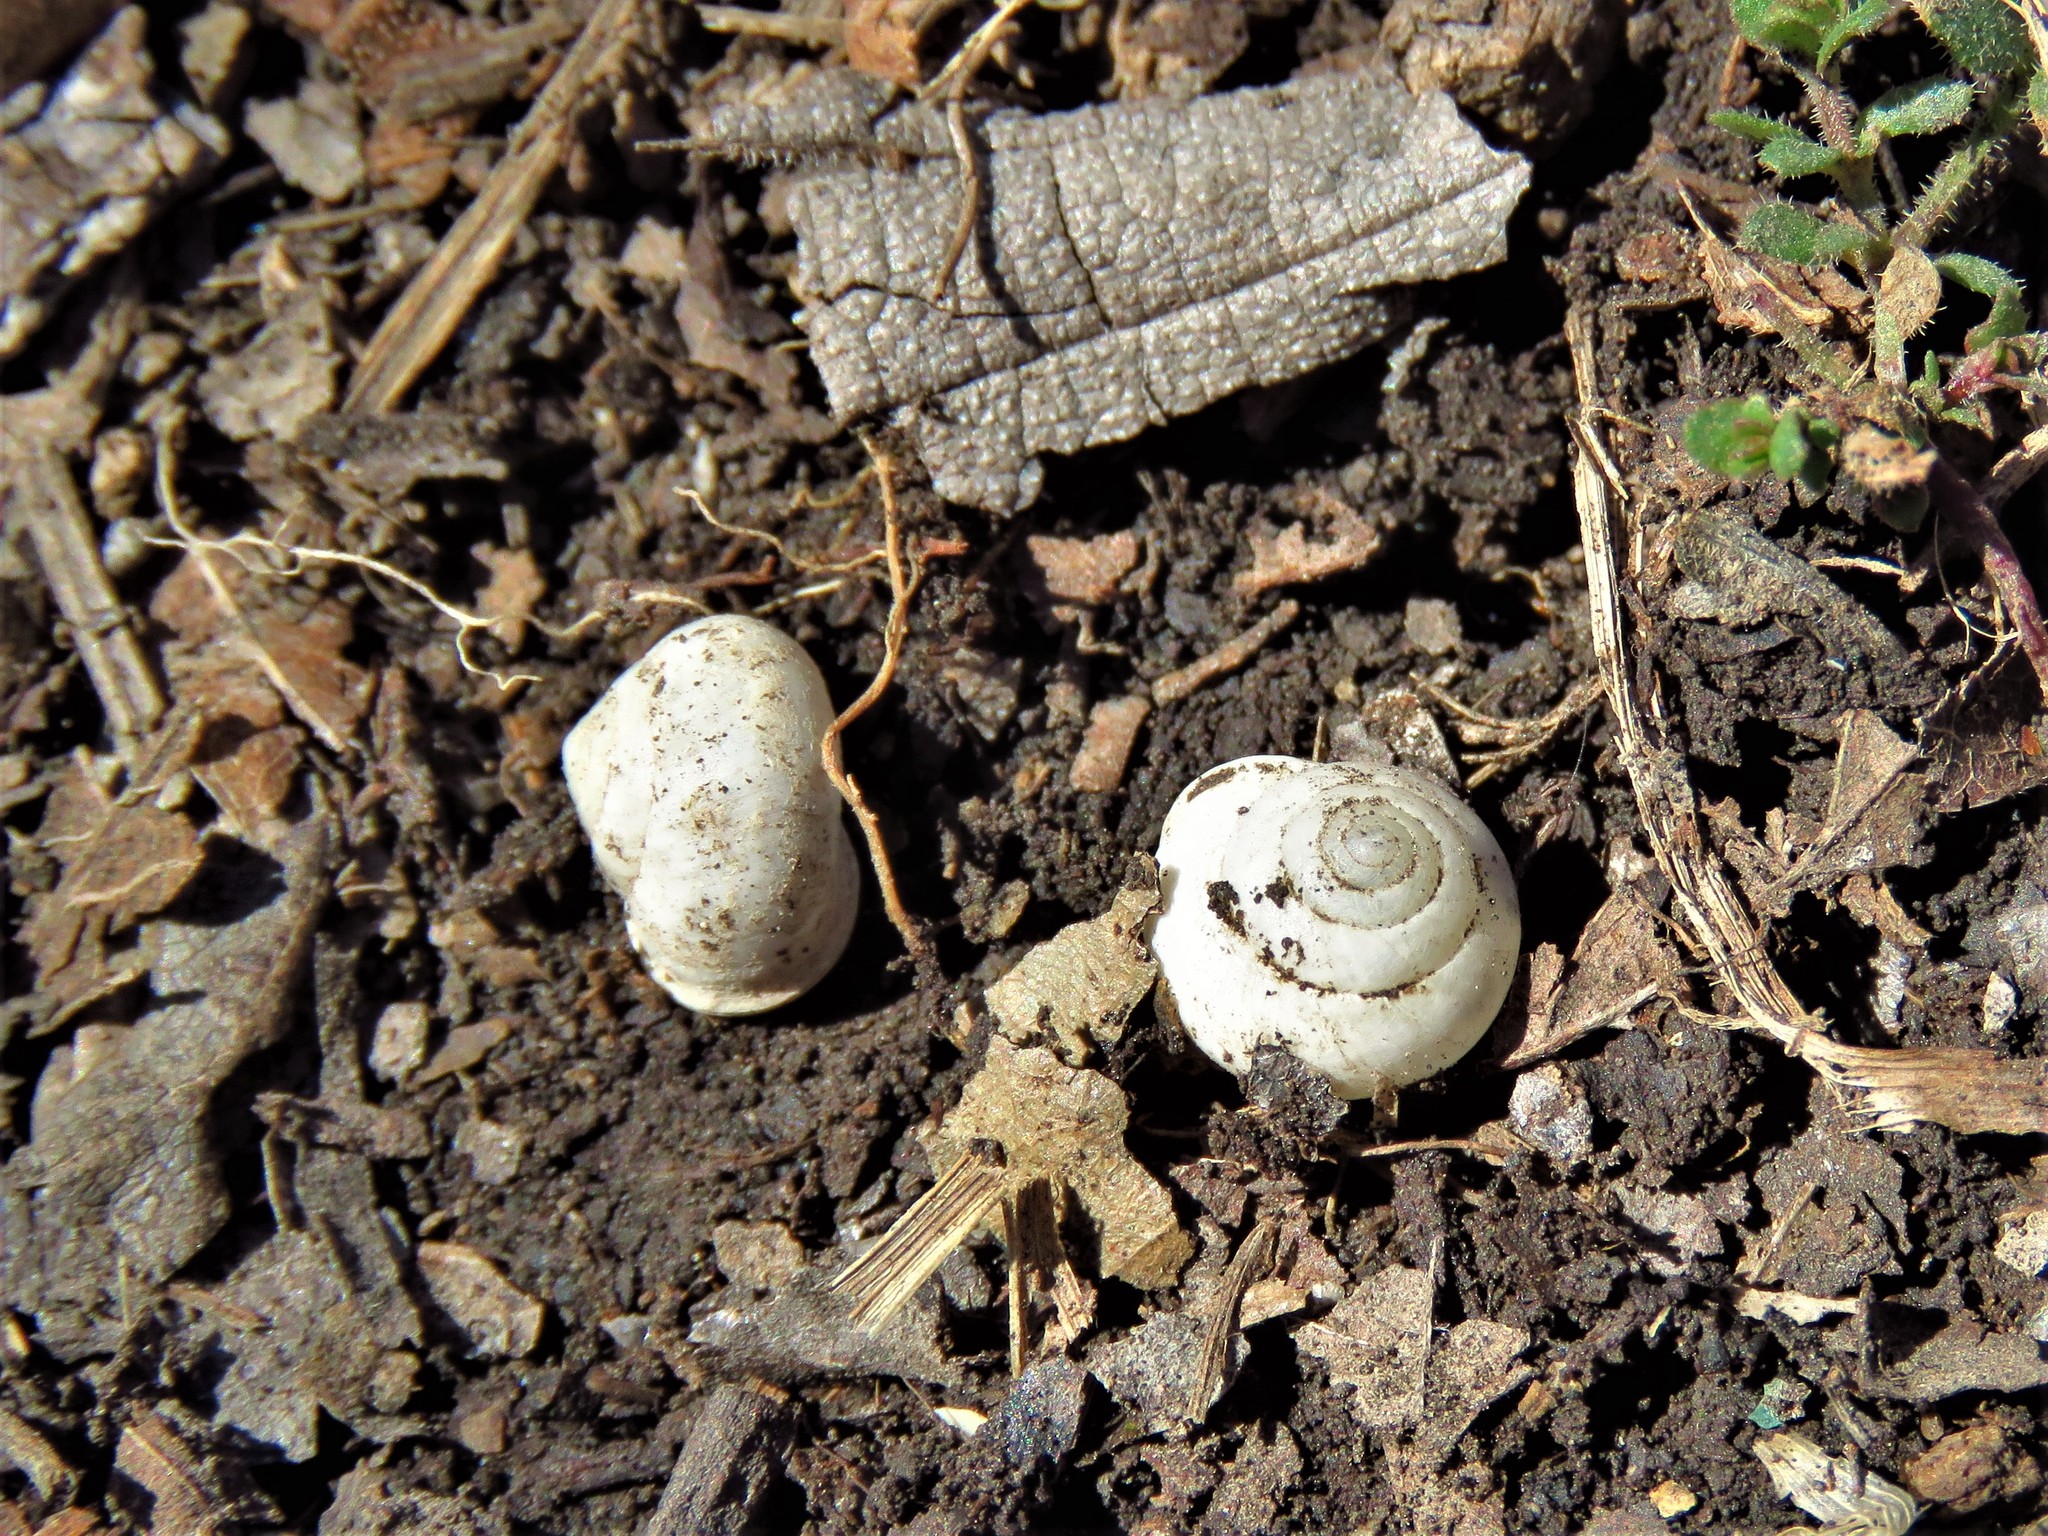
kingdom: Animalia
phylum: Mollusca
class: Gastropoda
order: Cycloneritida
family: Helicinidae
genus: Helicina
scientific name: Helicina orbiculata
